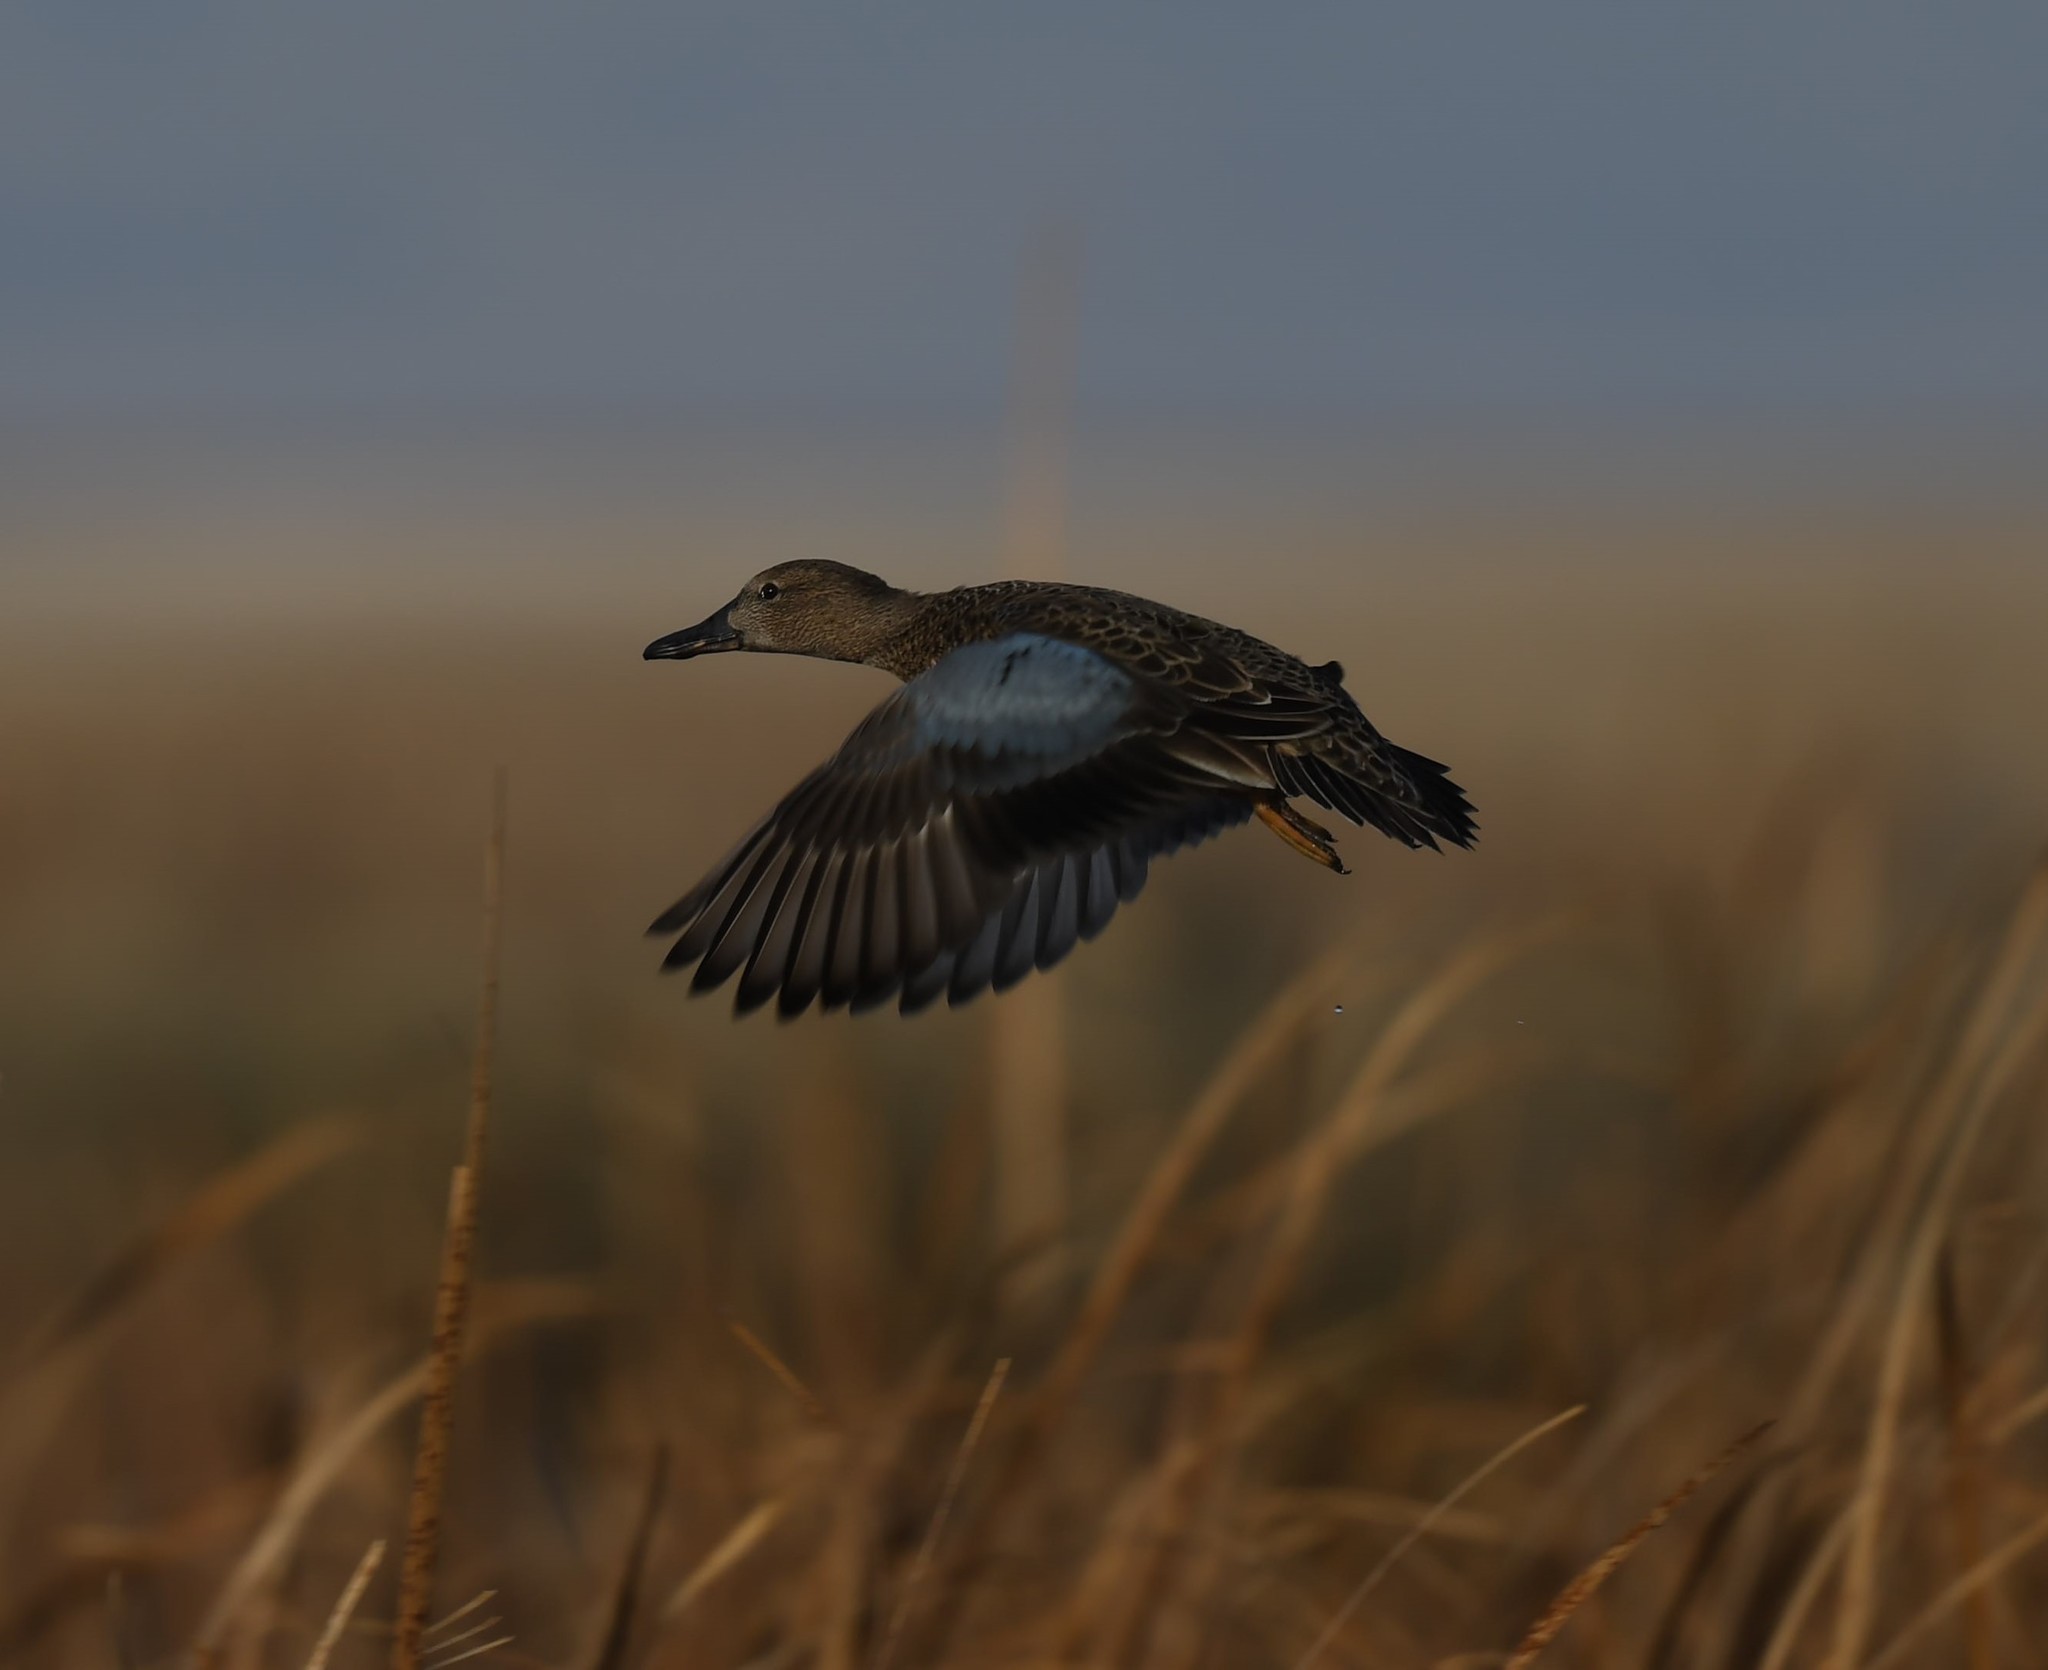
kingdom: Animalia
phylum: Chordata
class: Aves
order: Anseriformes
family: Anatidae
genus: Spatula
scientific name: Spatula cyanoptera
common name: Cinnamon teal
